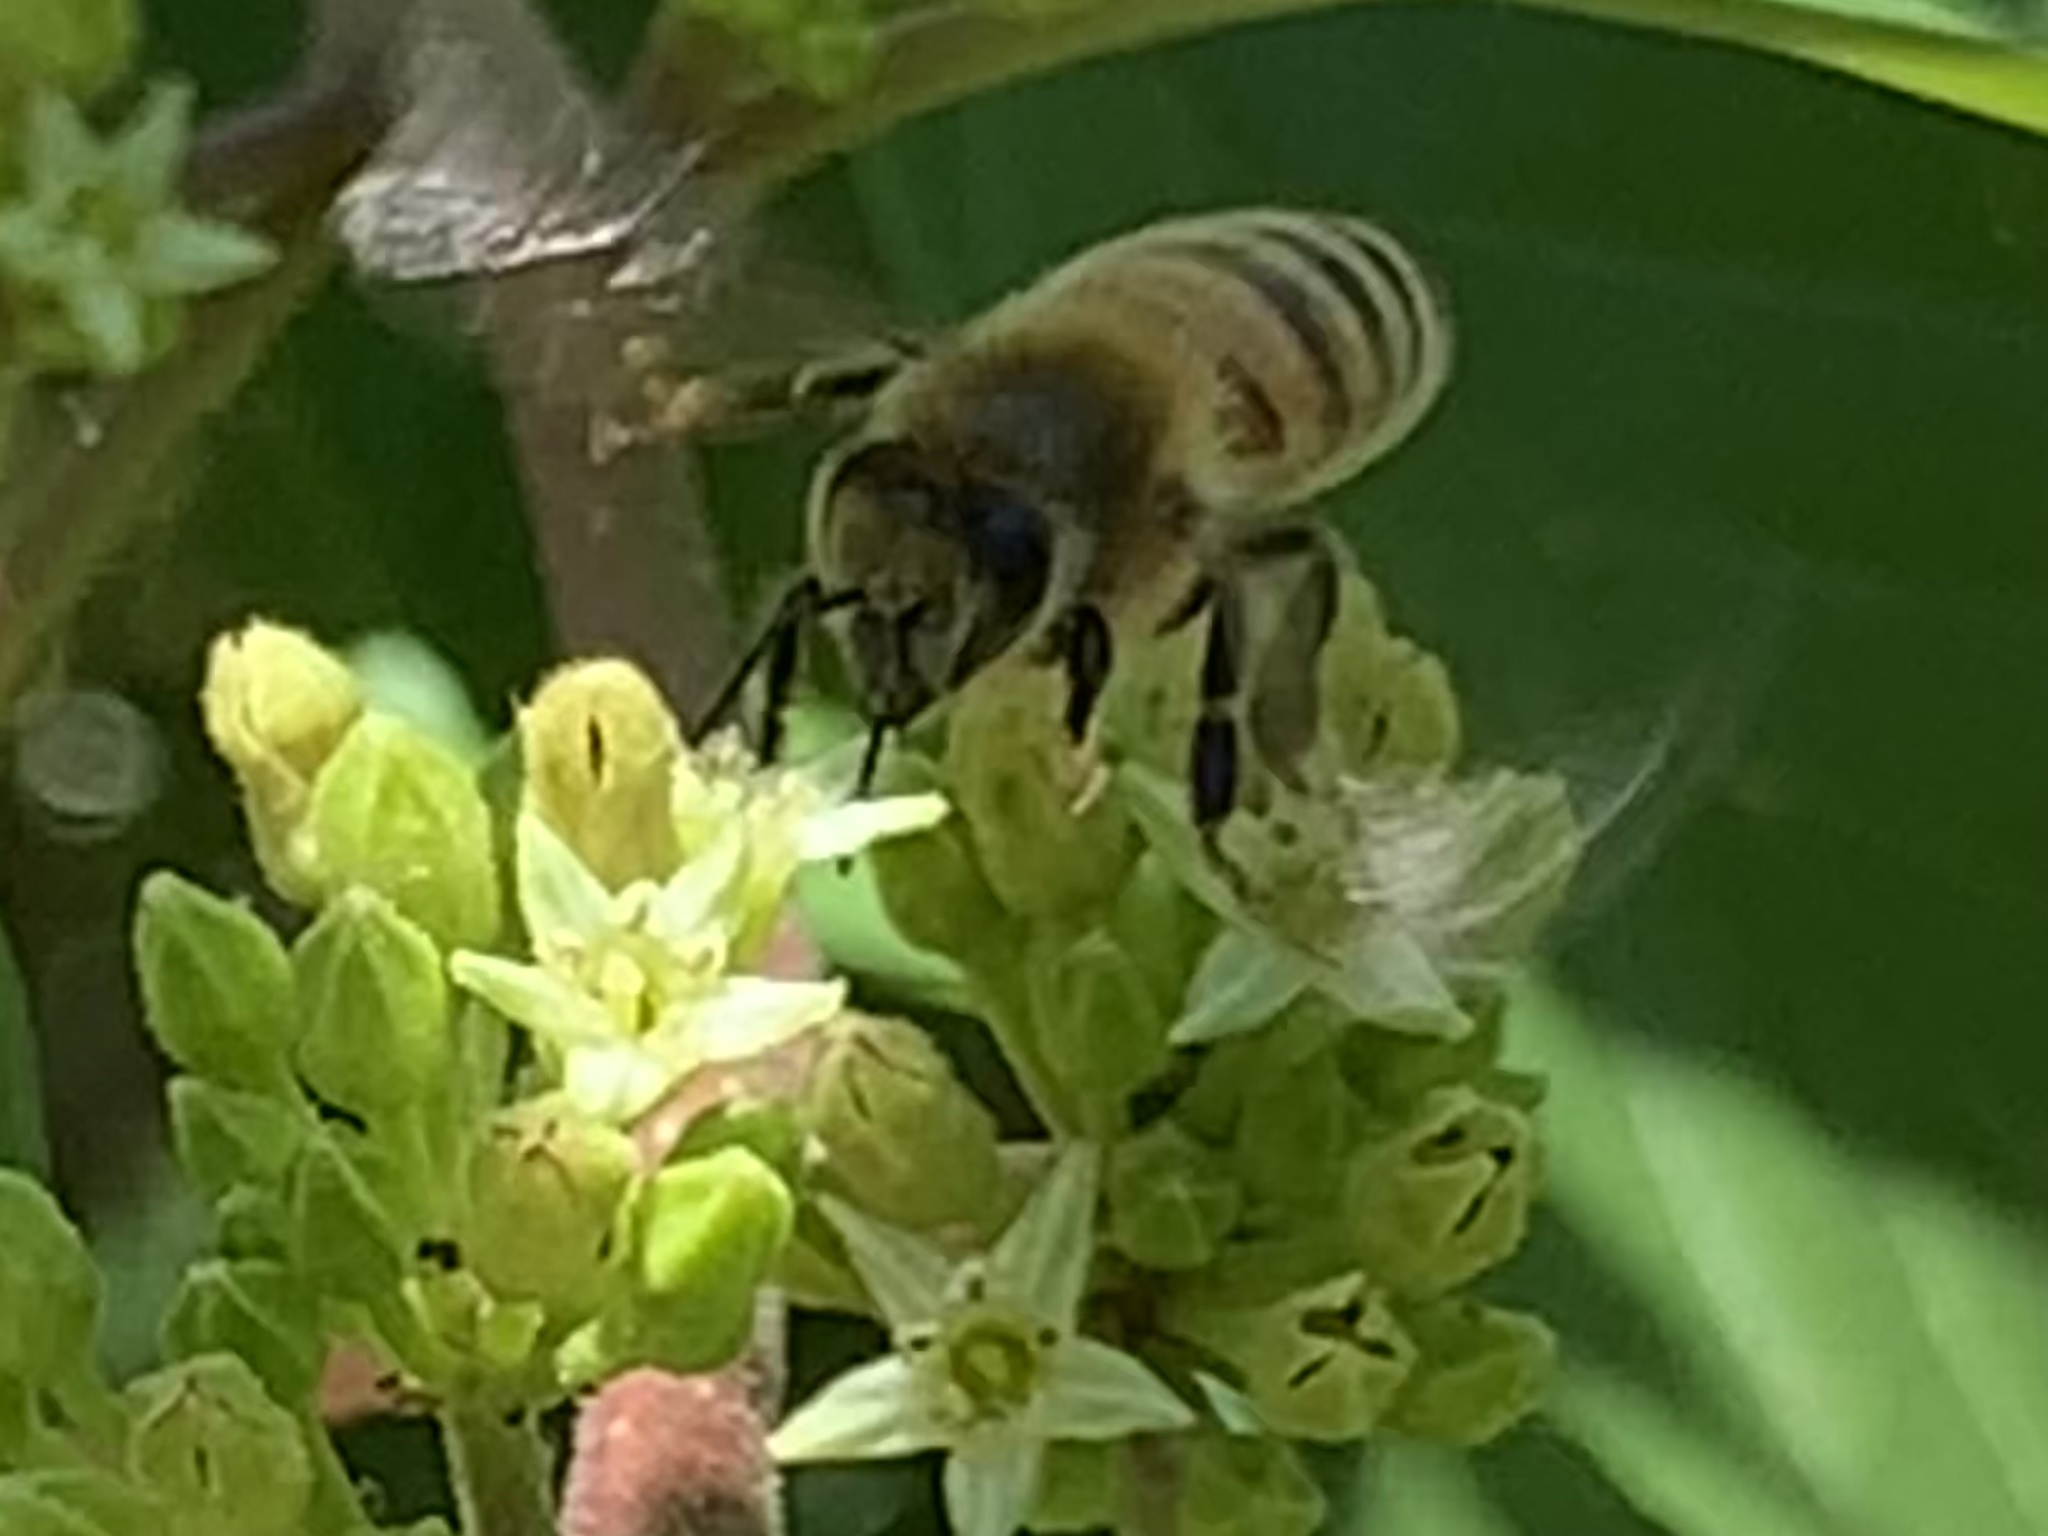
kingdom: Animalia
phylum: Arthropoda
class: Insecta
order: Hymenoptera
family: Apidae
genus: Apis
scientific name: Apis mellifera
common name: Honey bee
